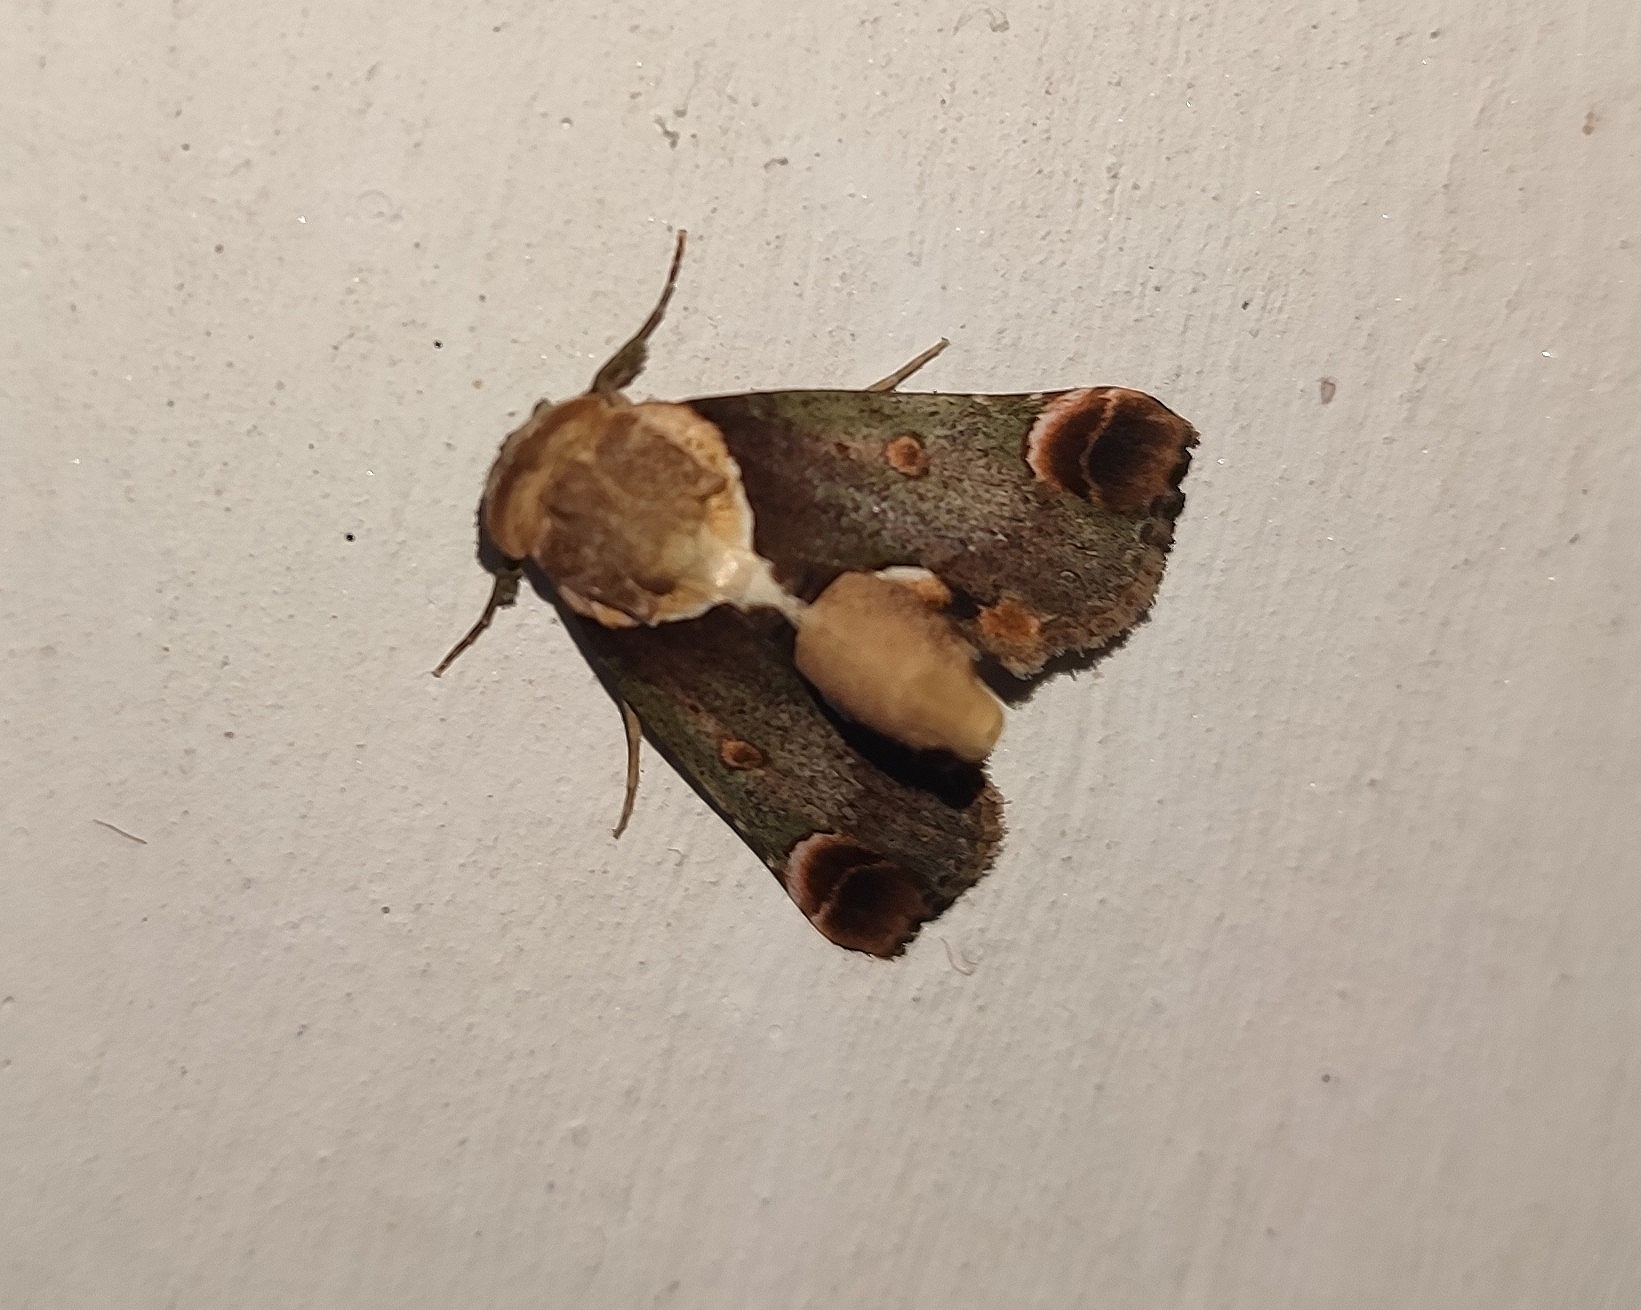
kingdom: Animalia
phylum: Arthropoda
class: Insecta
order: Lepidoptera
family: Nolidae
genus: Risoba
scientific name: Risoba repugnans
